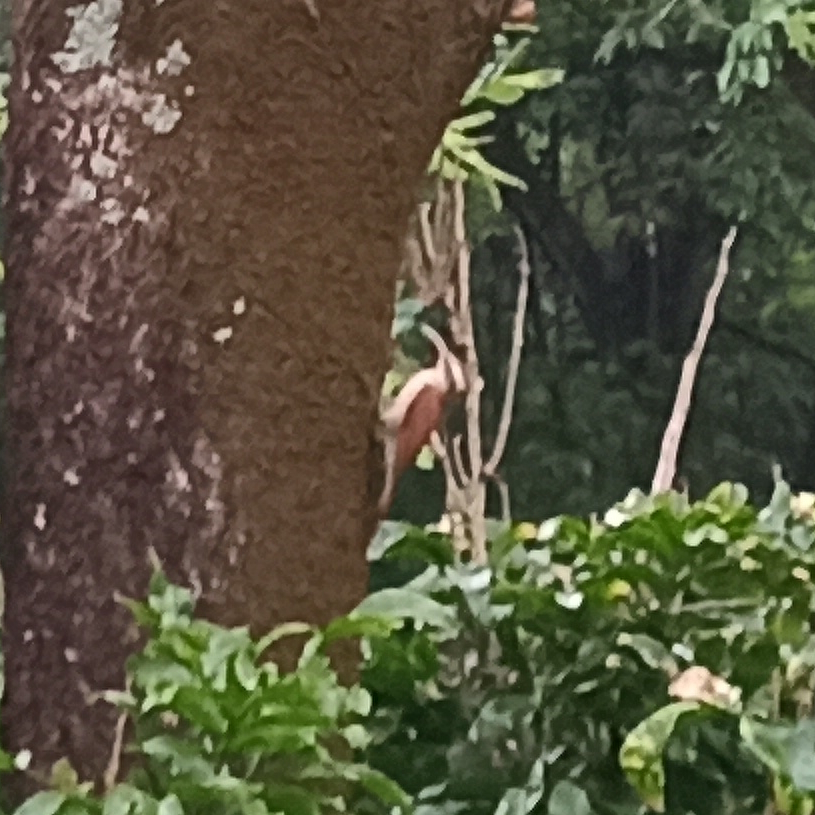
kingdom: Animalia
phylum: Chordata
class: Aves
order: Passeriformes
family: Furnariidae
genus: Lepidocolaptes
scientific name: Lepidocolaptes angustirostris
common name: Narrow-billed woodcreeper
